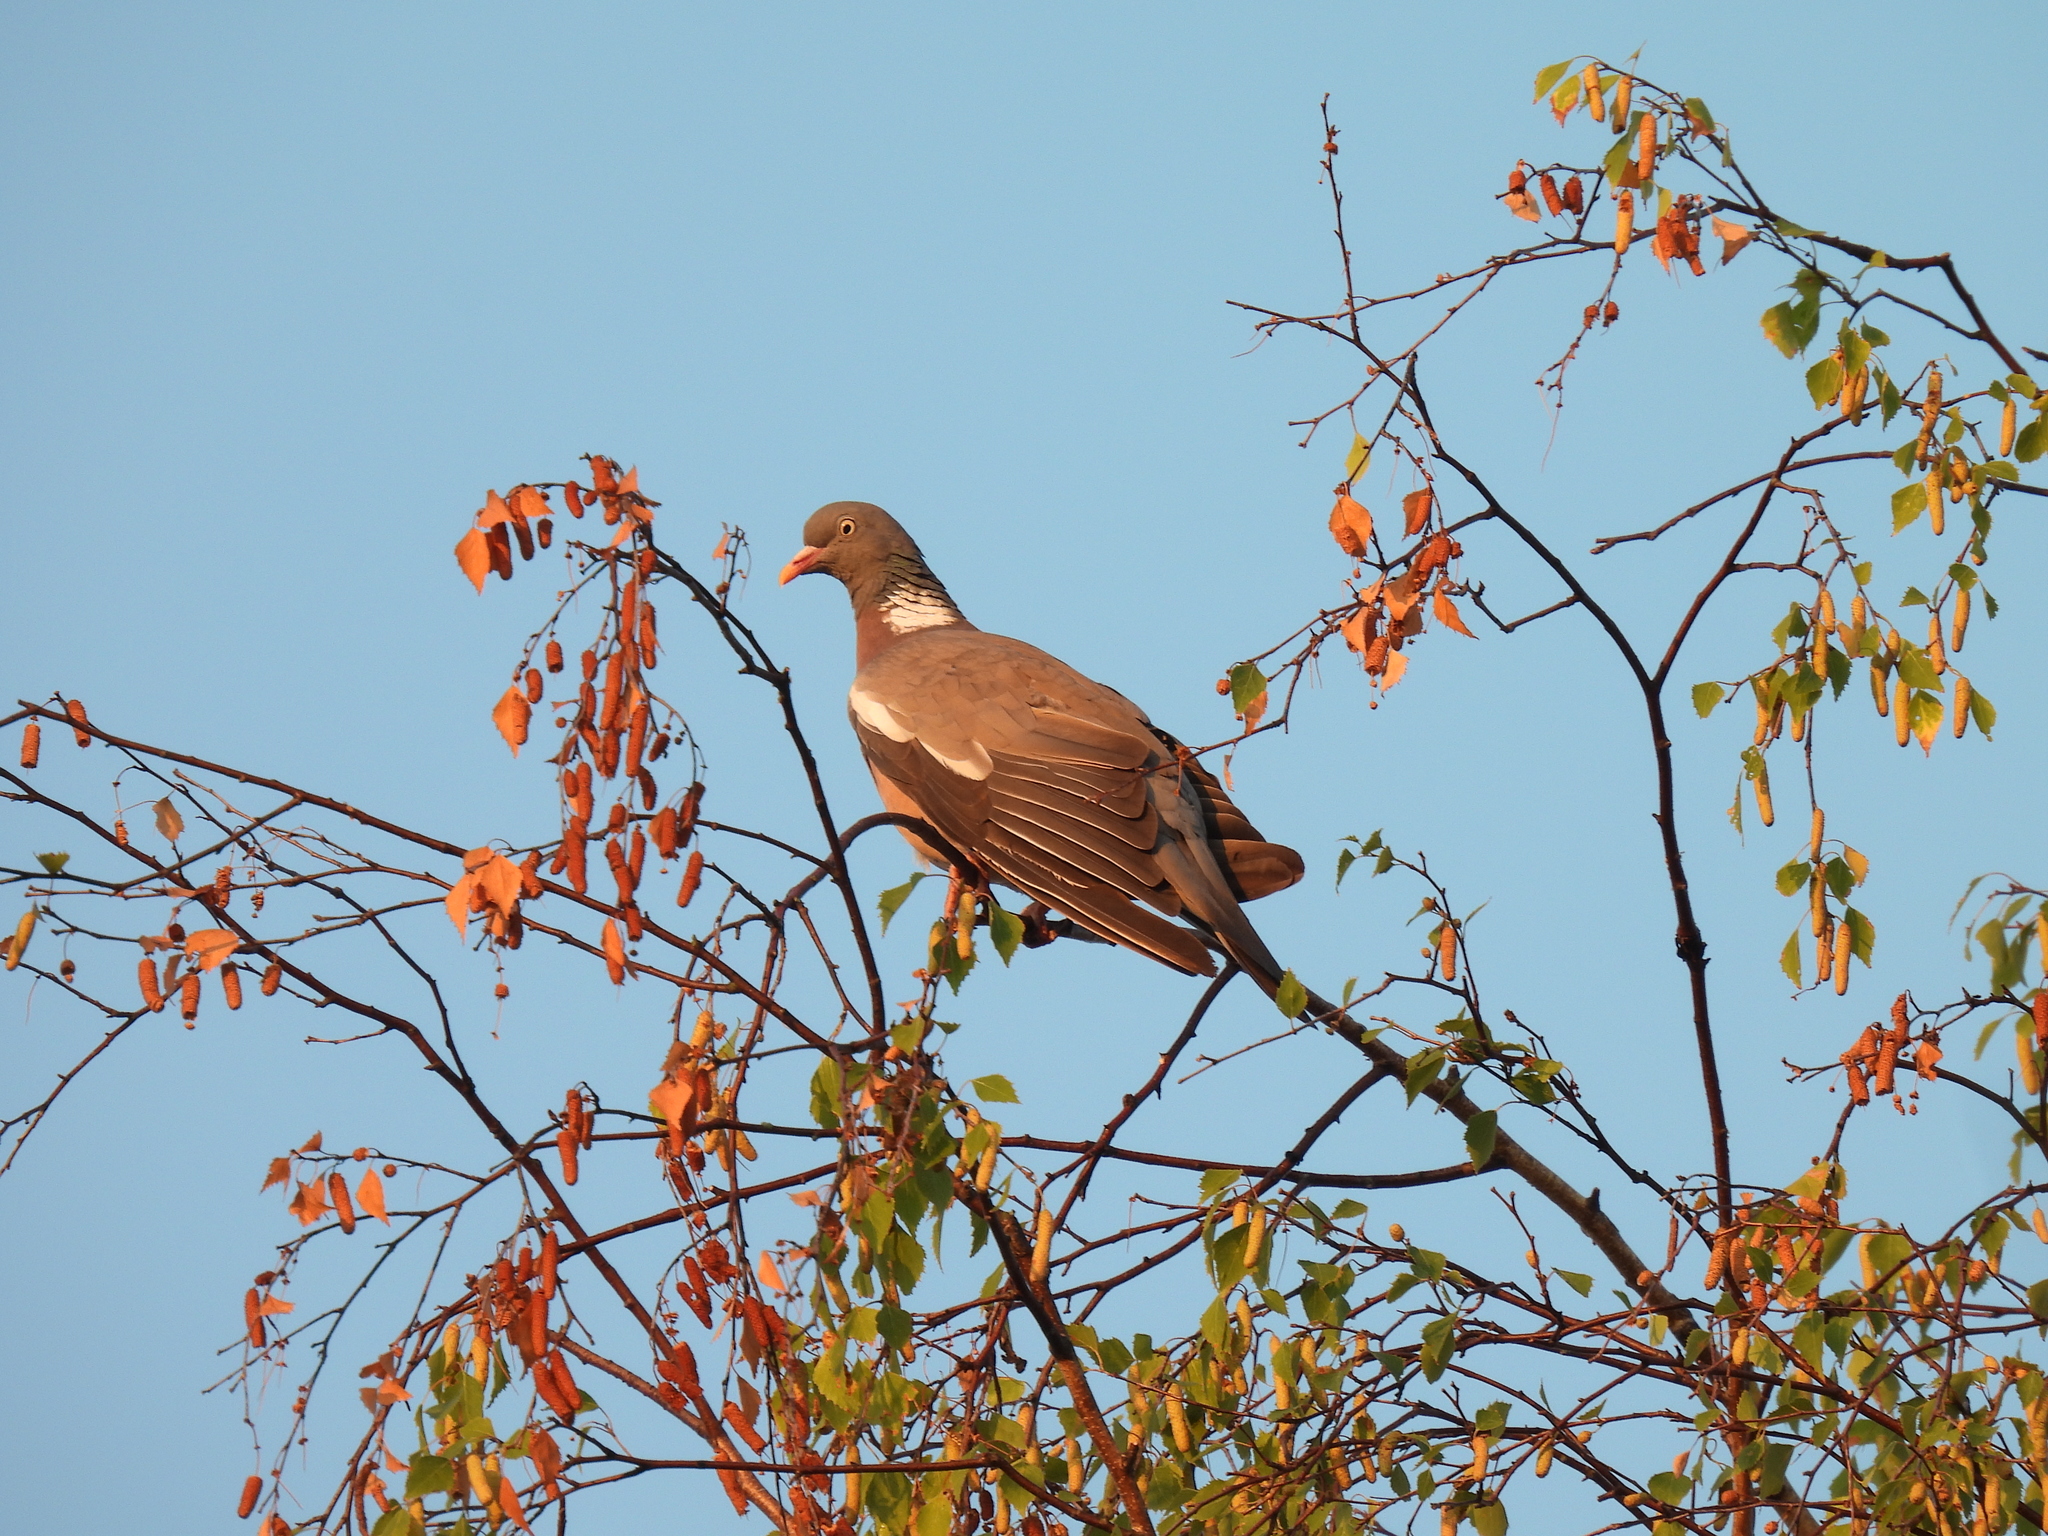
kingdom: Animalia
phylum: Chordata
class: Aves
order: Columbiformes
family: Columbidae
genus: Columba
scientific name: Columba palumbus
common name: Common wood pigeon
